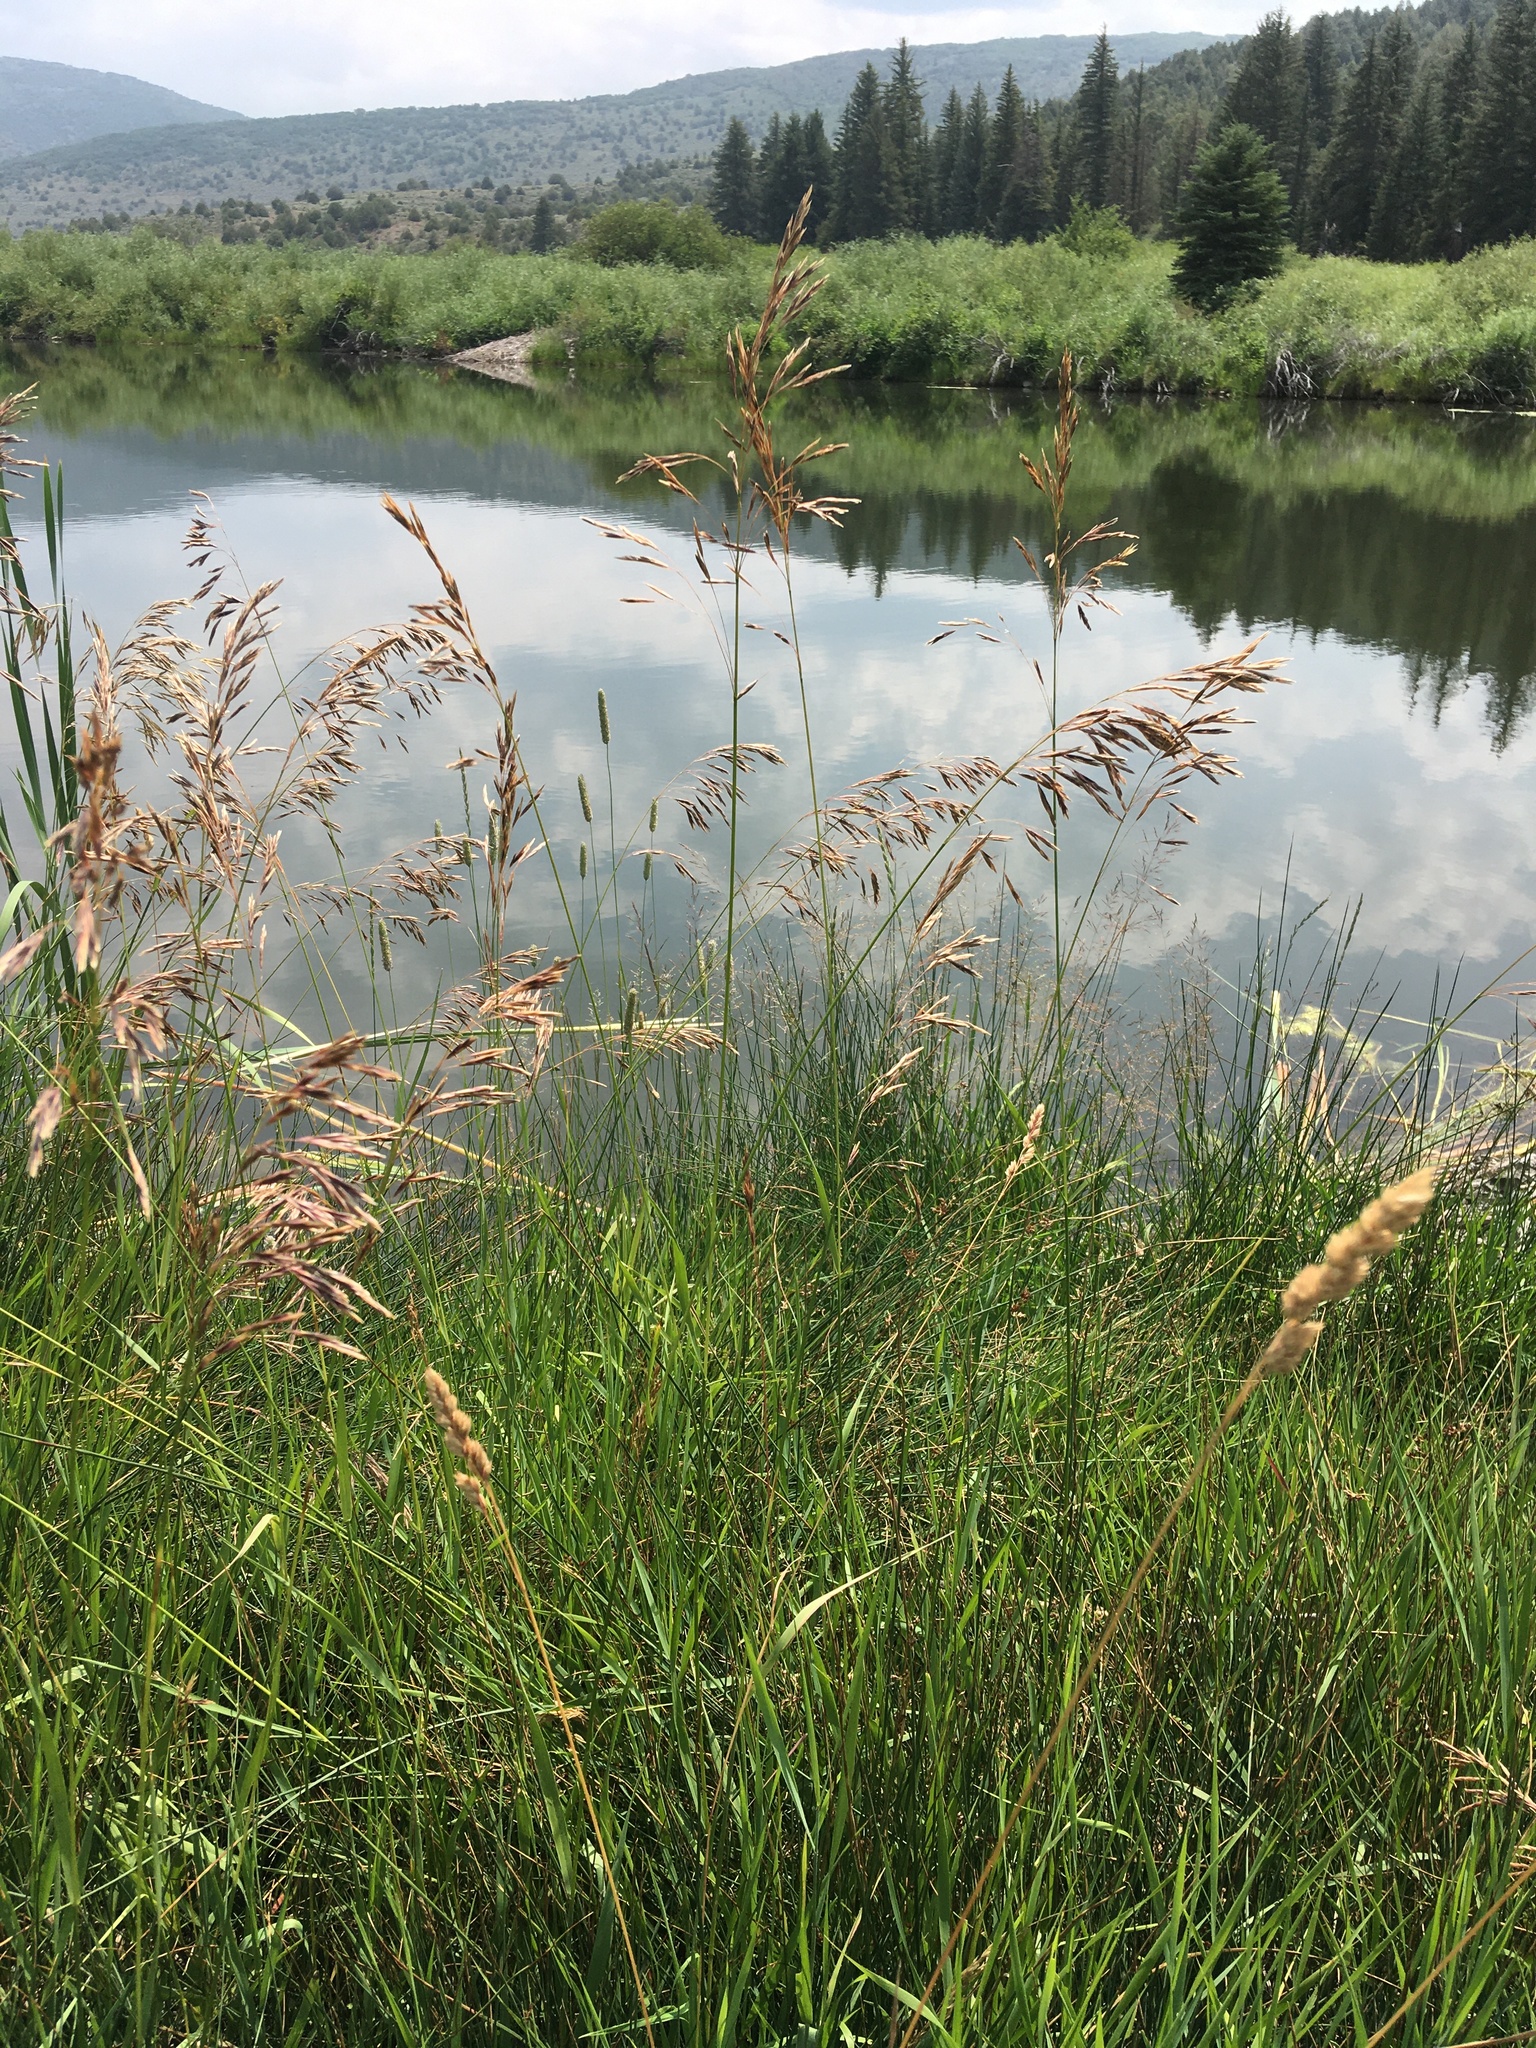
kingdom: Plantae
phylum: Tracheophyta
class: Liliopsida
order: Poales
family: Poaceae
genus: Bromus
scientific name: Bromus inermis
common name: Smooth brome
